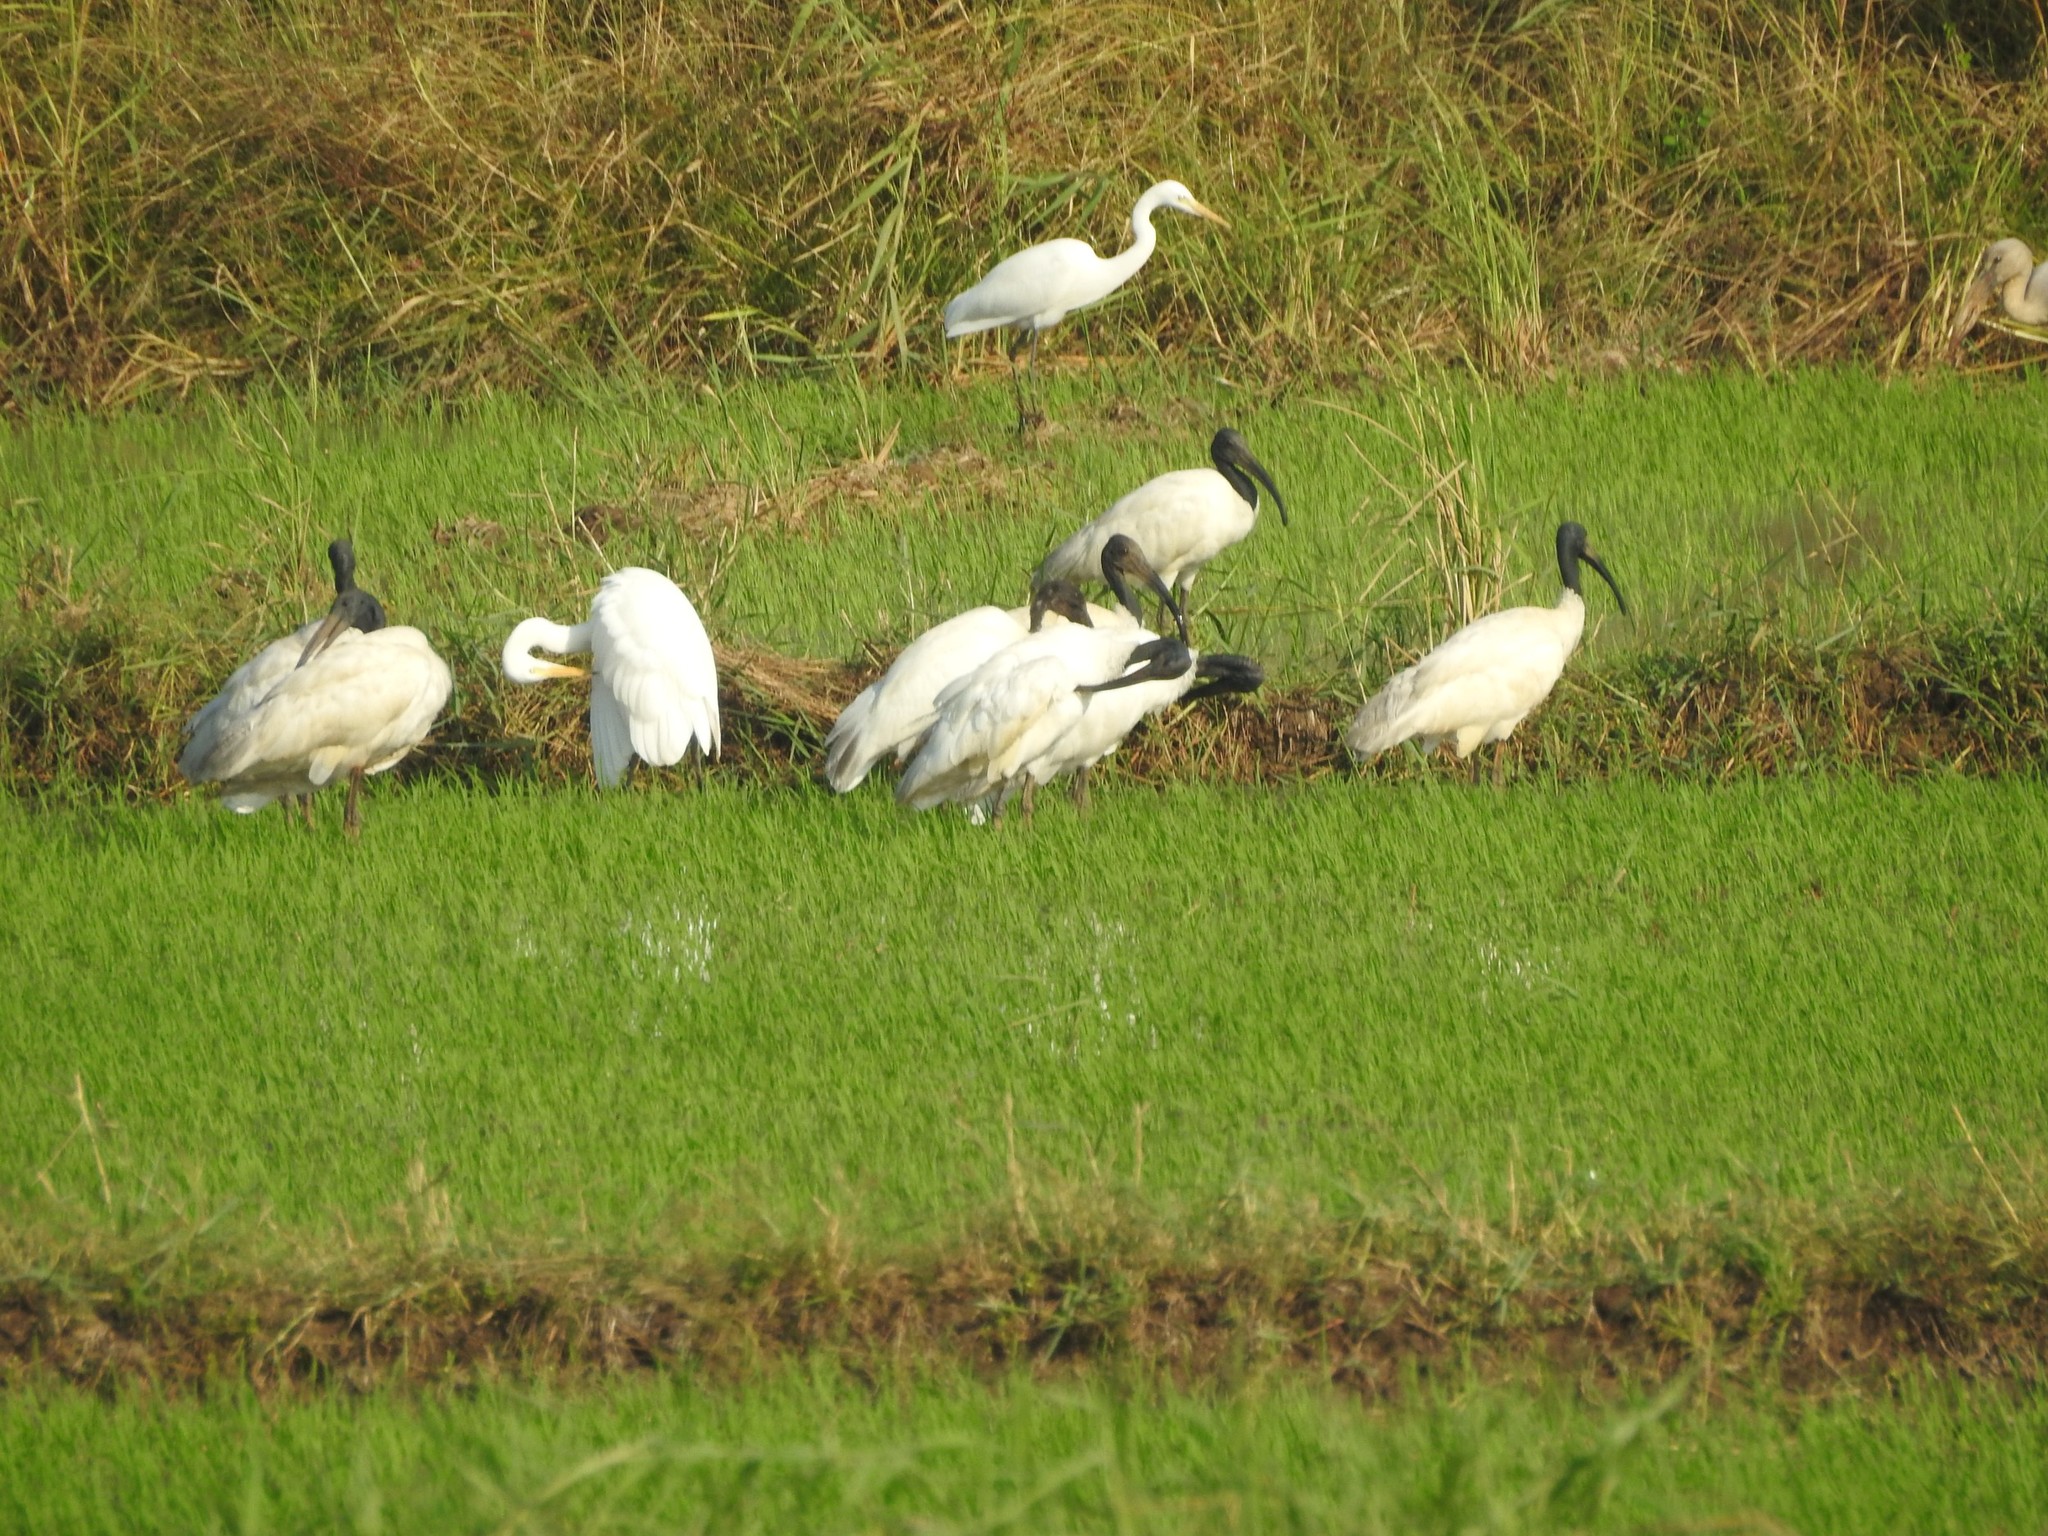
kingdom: Animalia
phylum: Chordata
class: Aves
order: Pelecaniformes
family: Threskiornithidae
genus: Threskiornis
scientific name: Threskiornis melanocephalus
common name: Black-headed ibis
